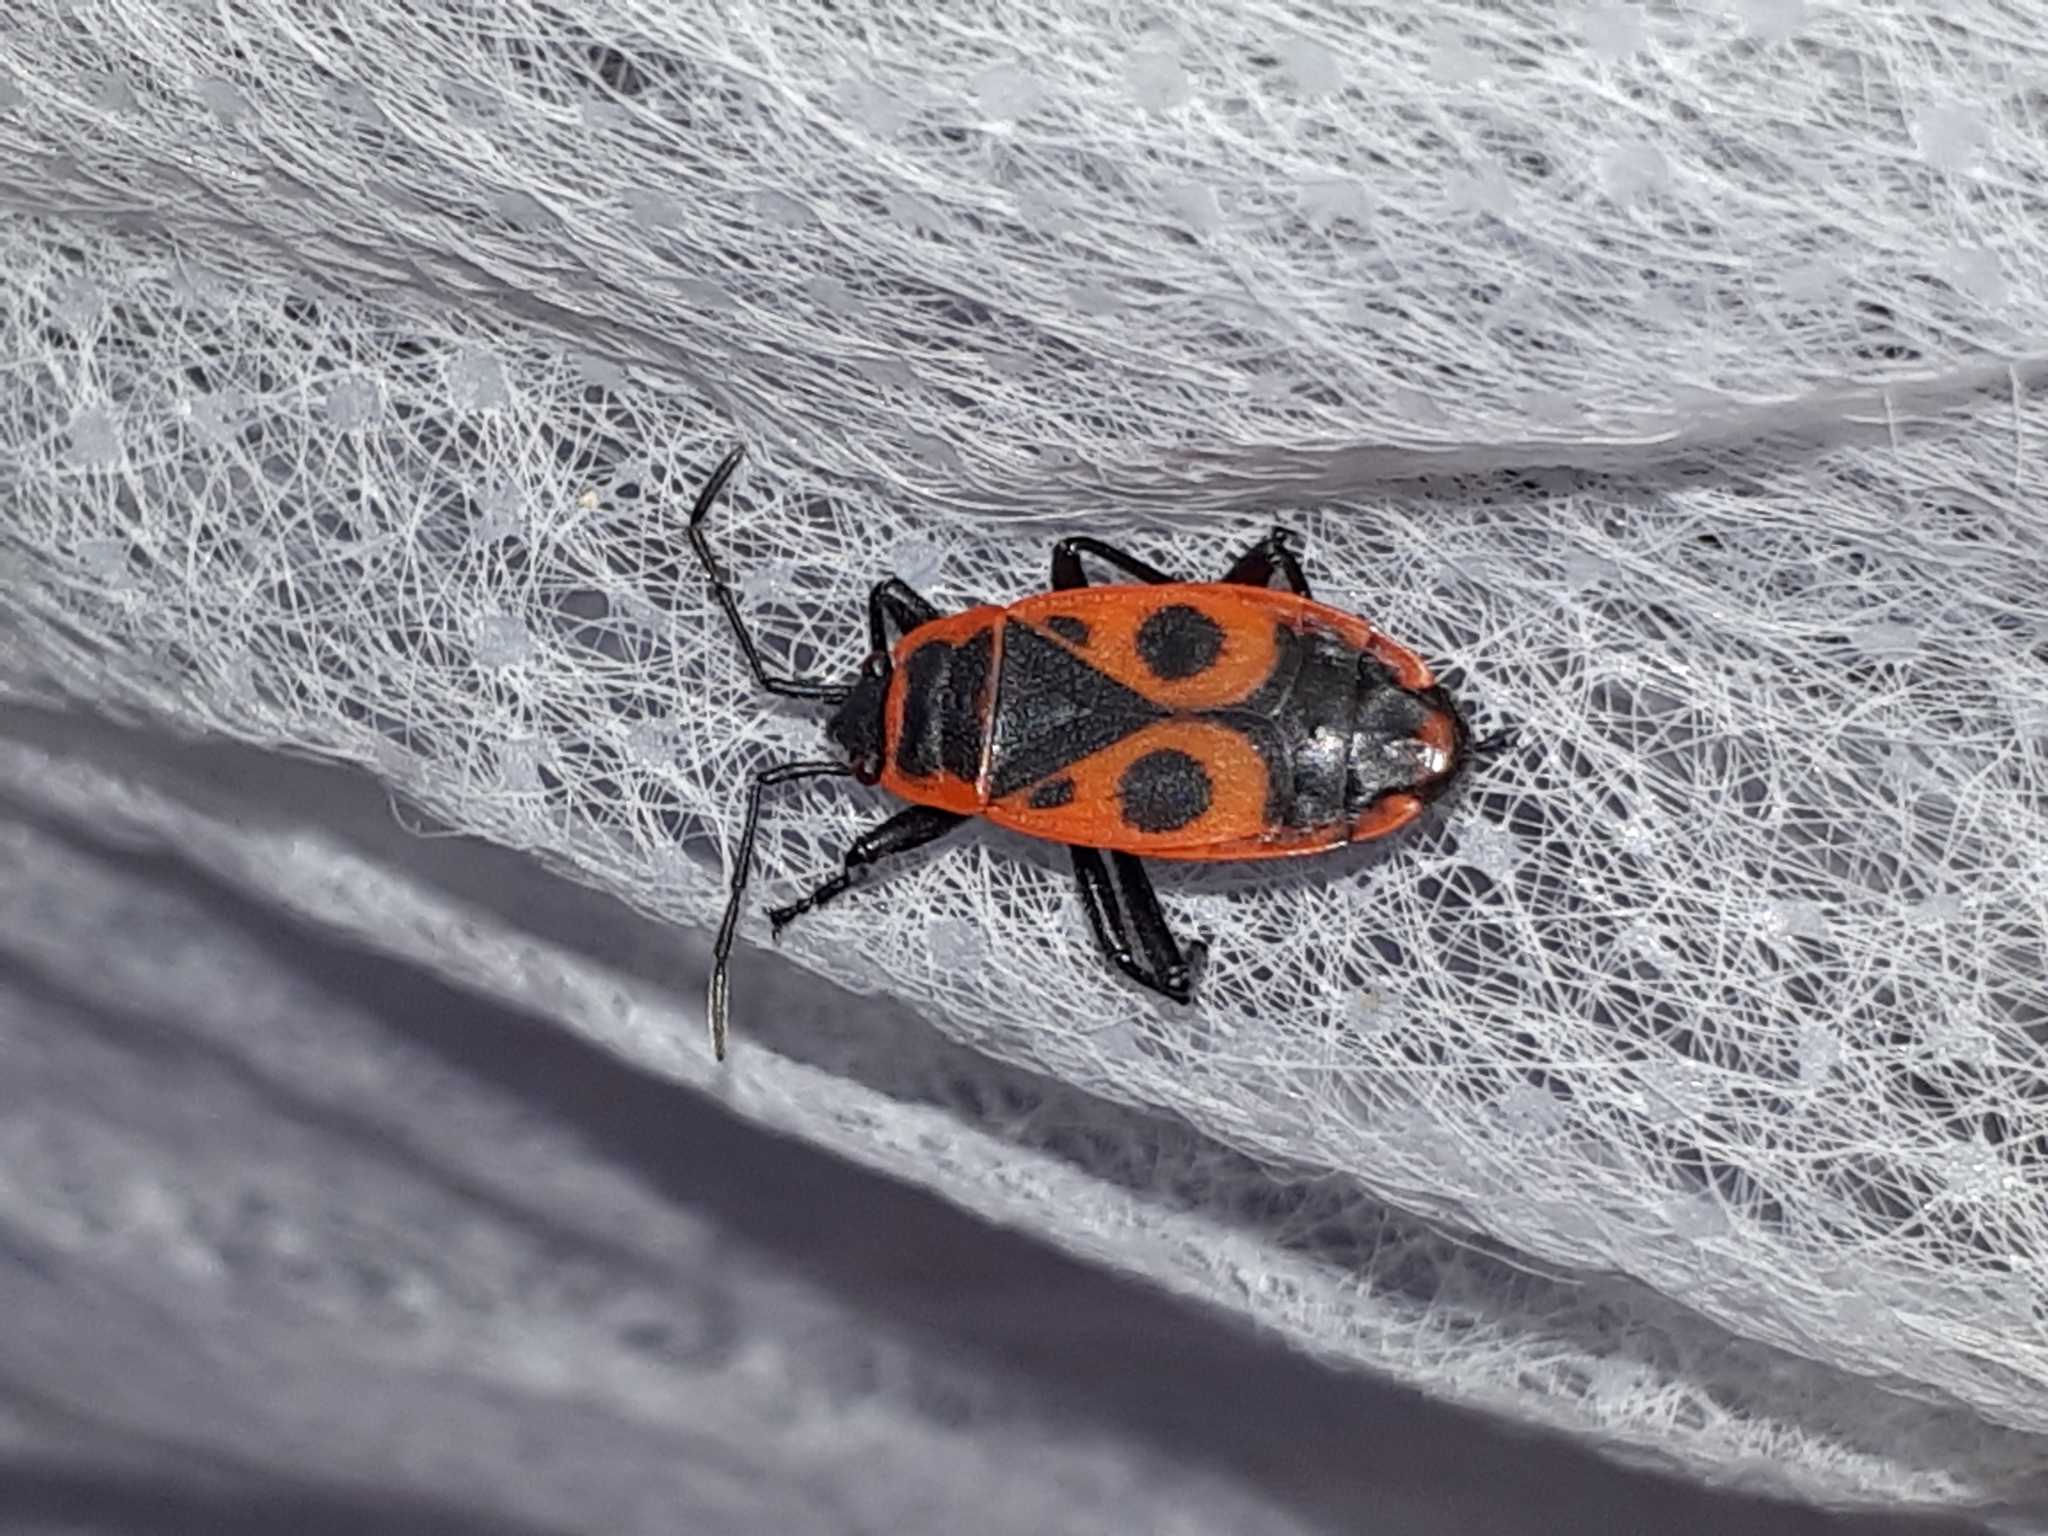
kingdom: Animalia
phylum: Arthropoda
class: Insecta
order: Hemiptera
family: Pyrrhocoridae
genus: Pyrrhocoris
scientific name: Pyrrhocoris apterus
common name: Firebug
